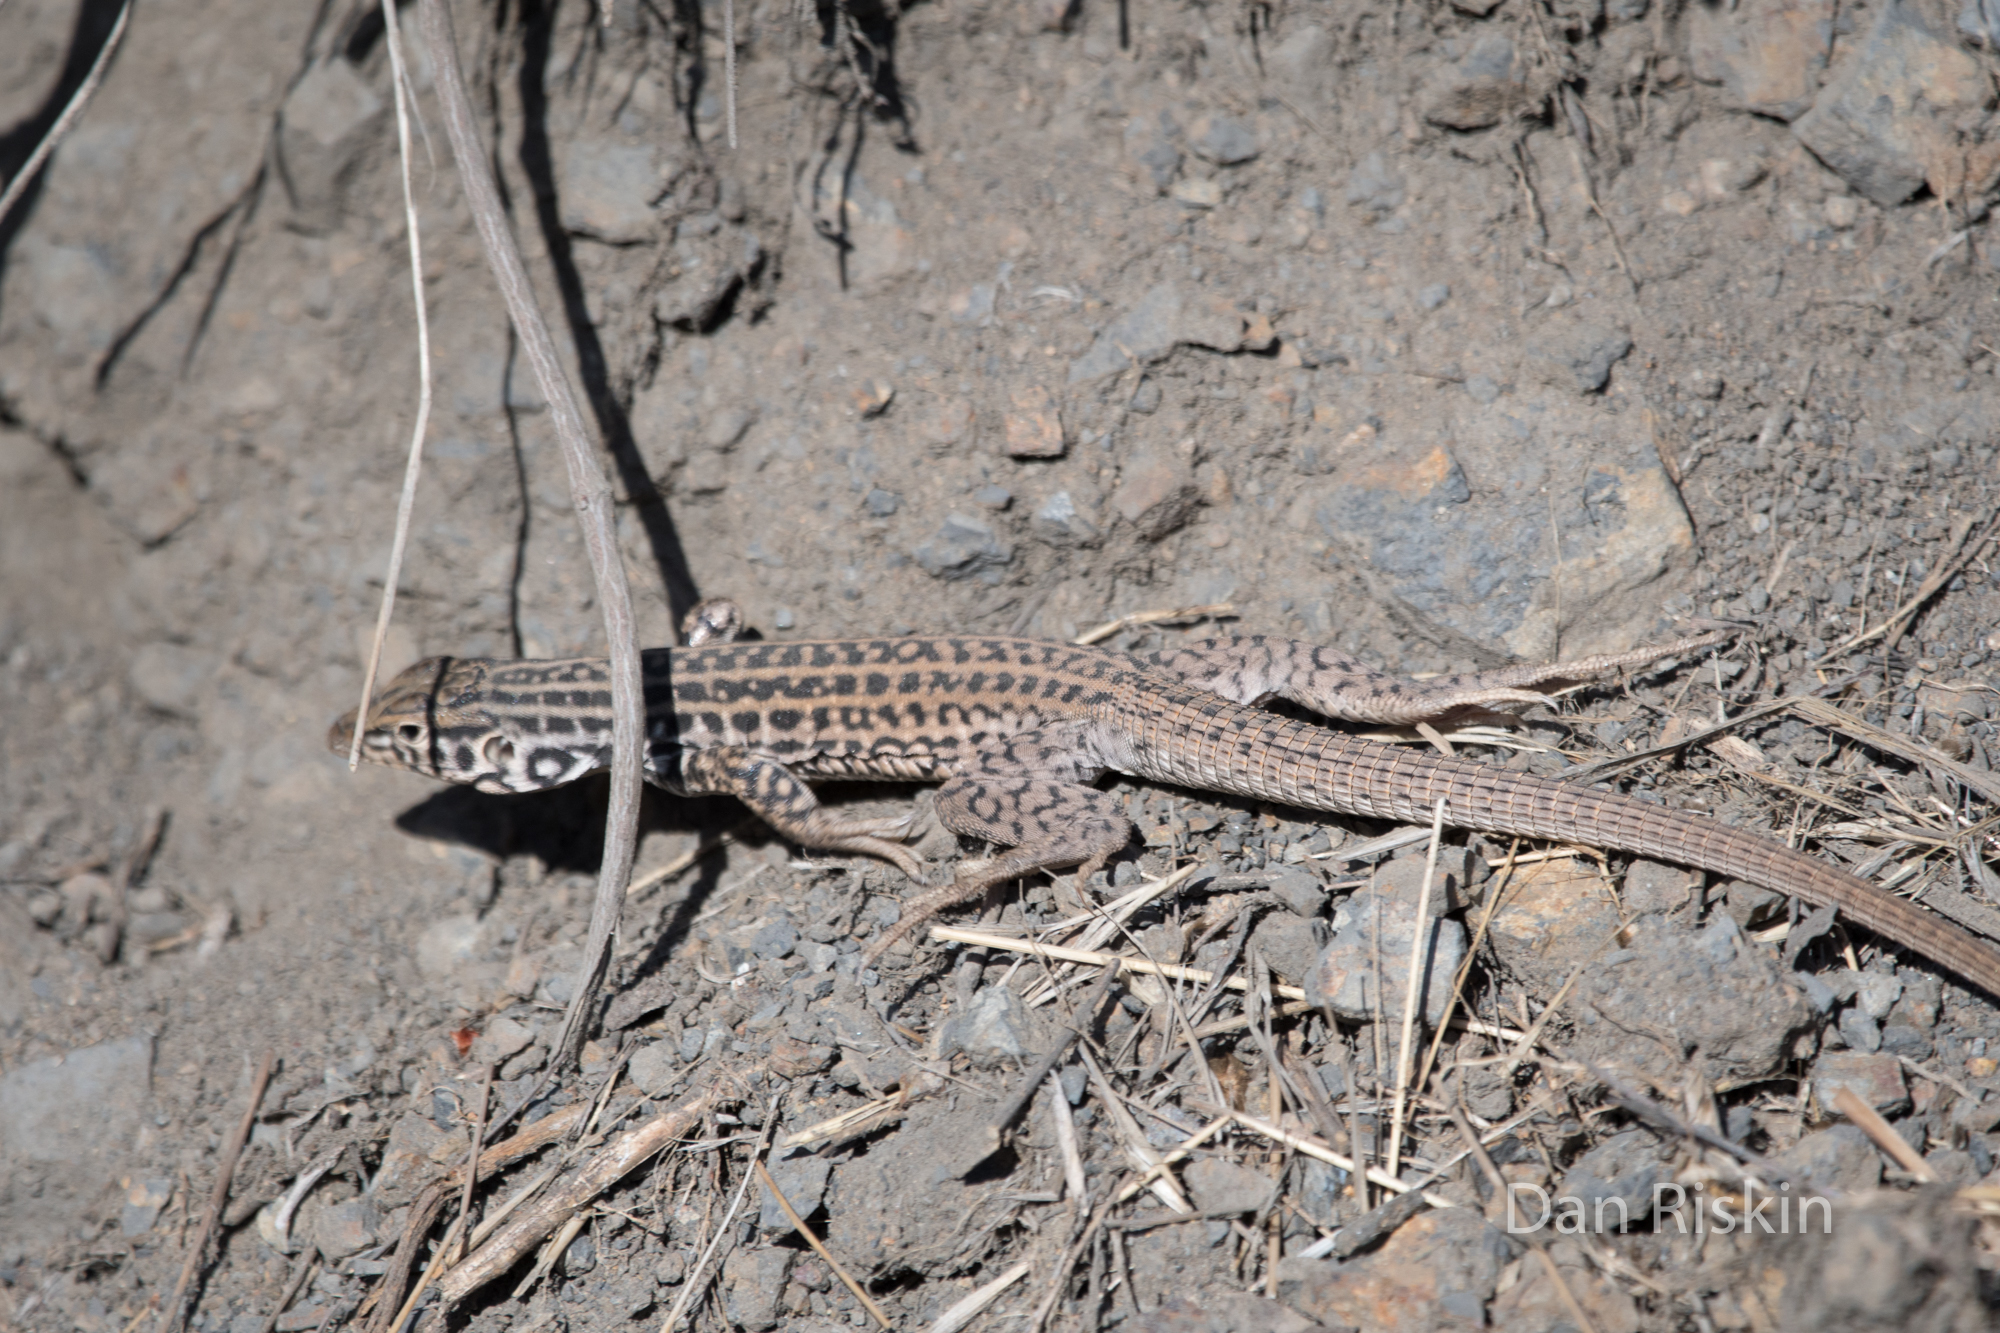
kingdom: Animalia
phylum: Chordata
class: Squamata
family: Teiidae
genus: Aspidoscelis
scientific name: Aspidoscelis tigris
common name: Tiger whiptail
